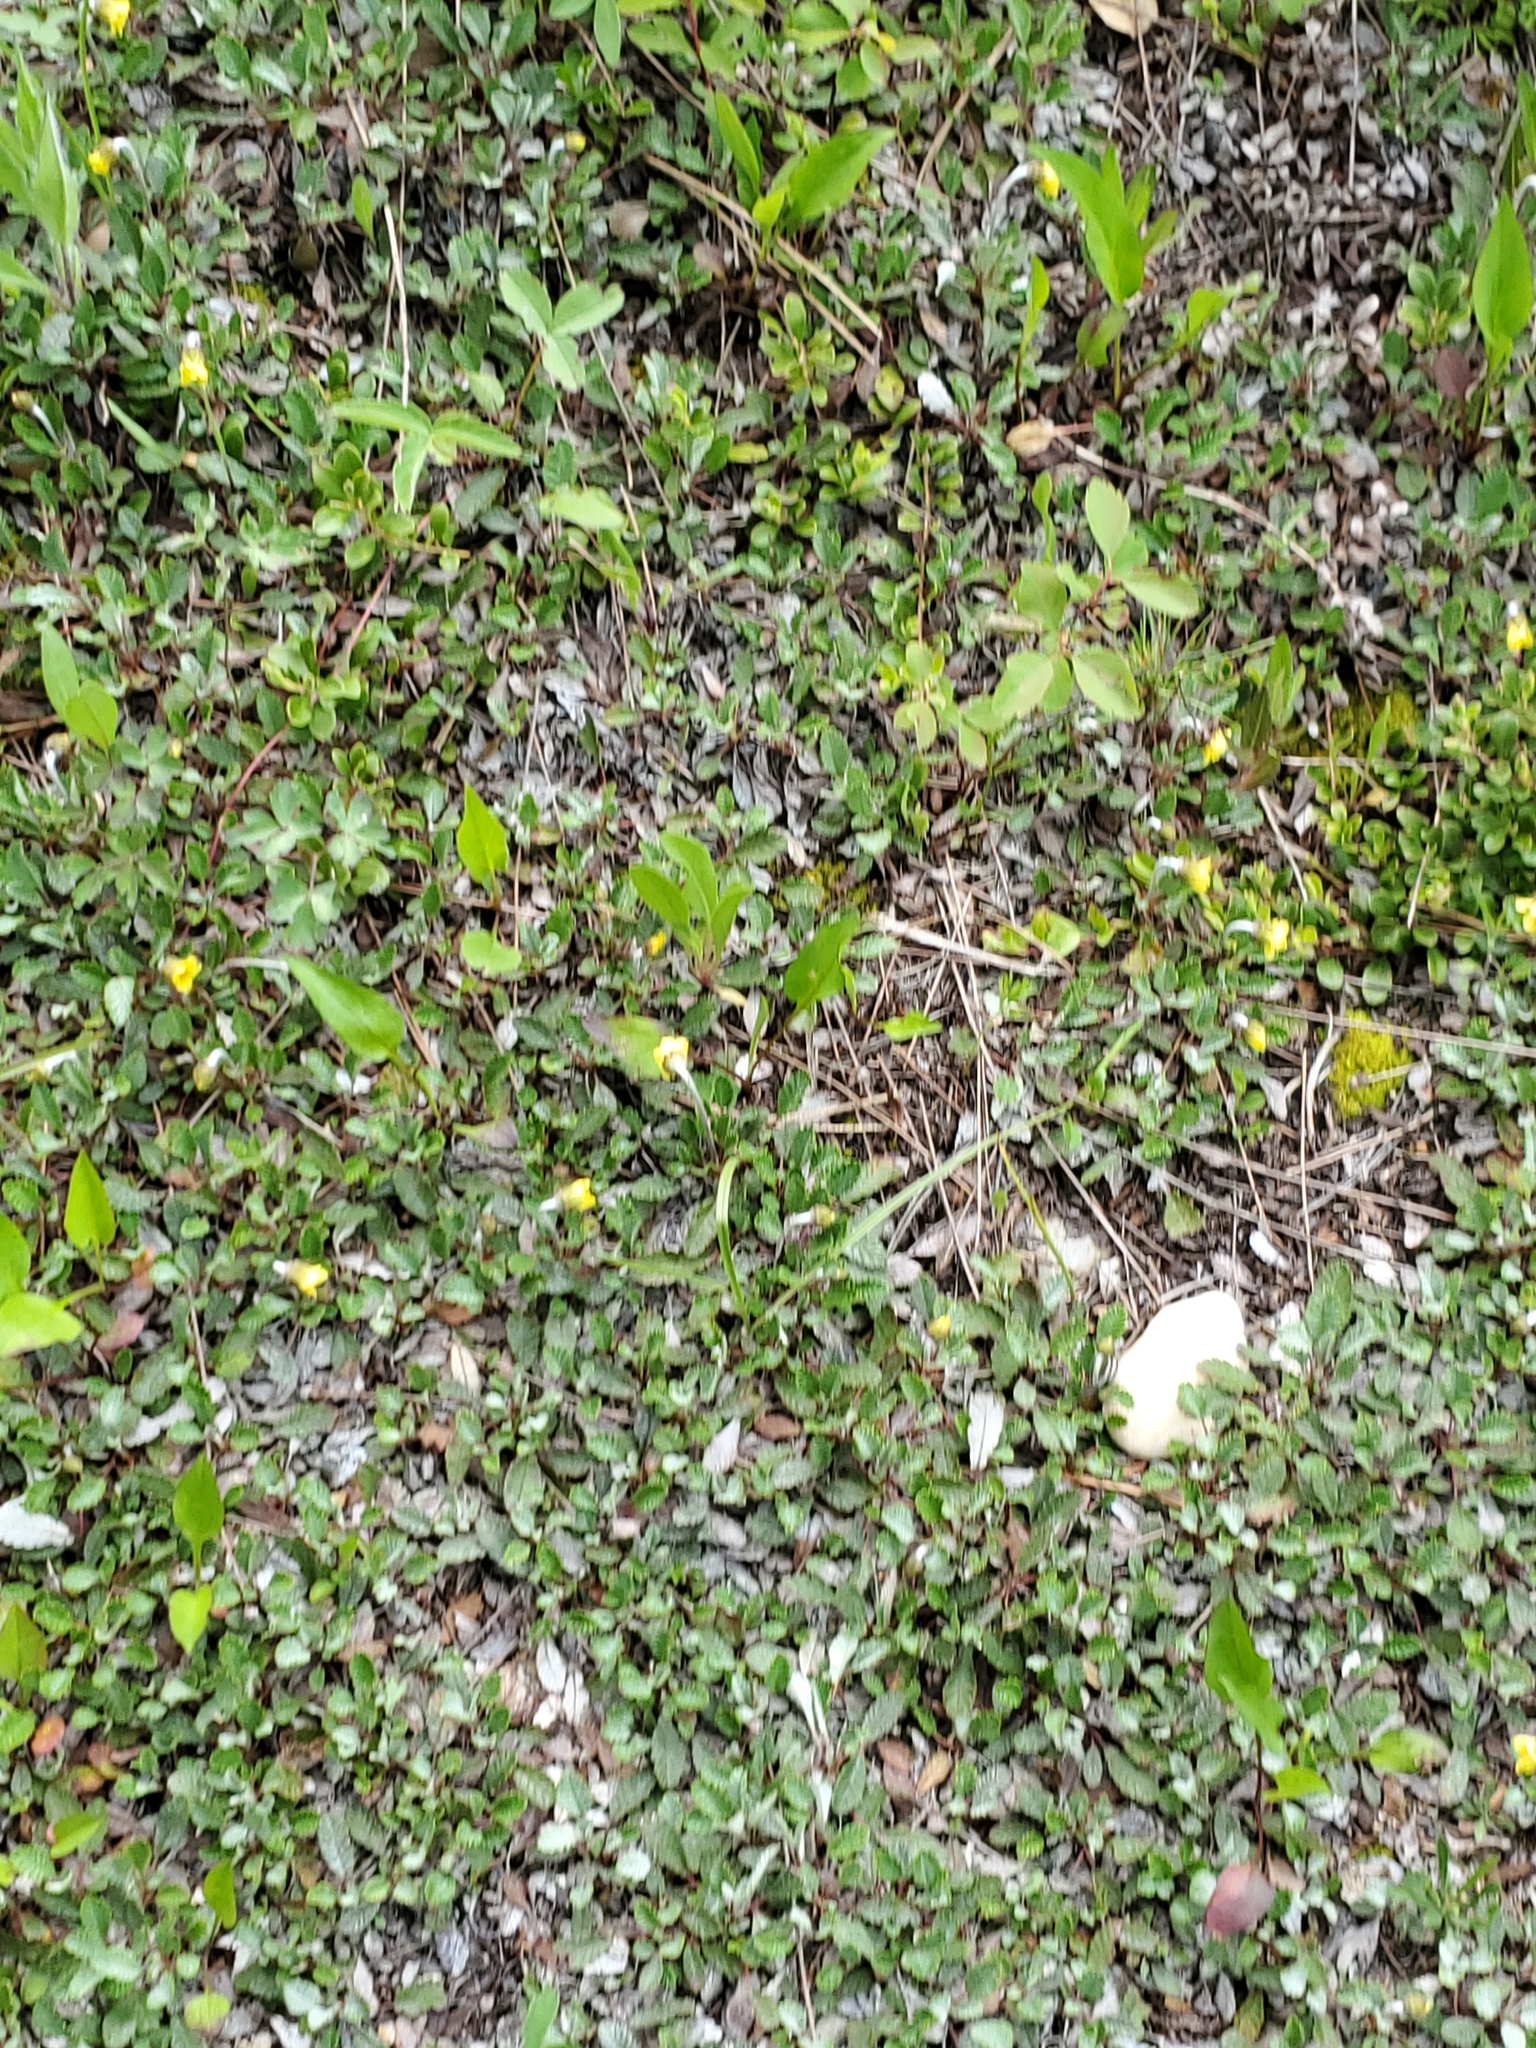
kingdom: Plantae
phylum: Tracheophyta
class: Magnoliopsida
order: Rosales
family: Rosaceae
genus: Dryas
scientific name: Dryas drummondii
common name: Drummond's dryad
